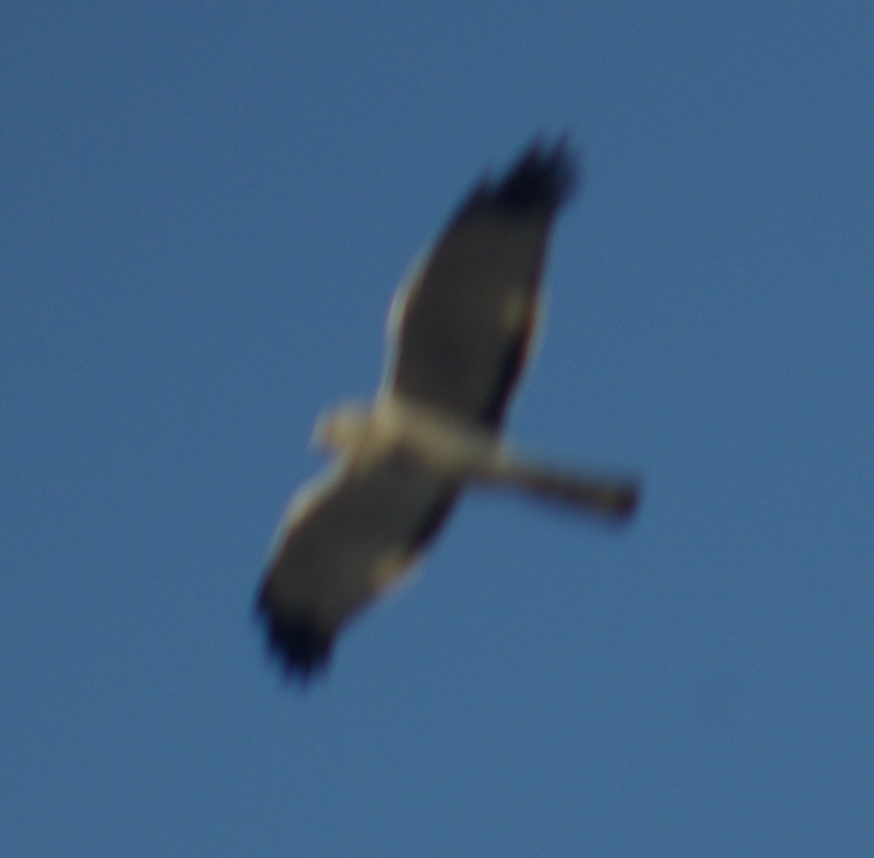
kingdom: Animalia
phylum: Chordata
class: Aves
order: Accipitriformes
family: Accipitridae
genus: Circus
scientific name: Circus cyaneus
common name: Hen harrier
